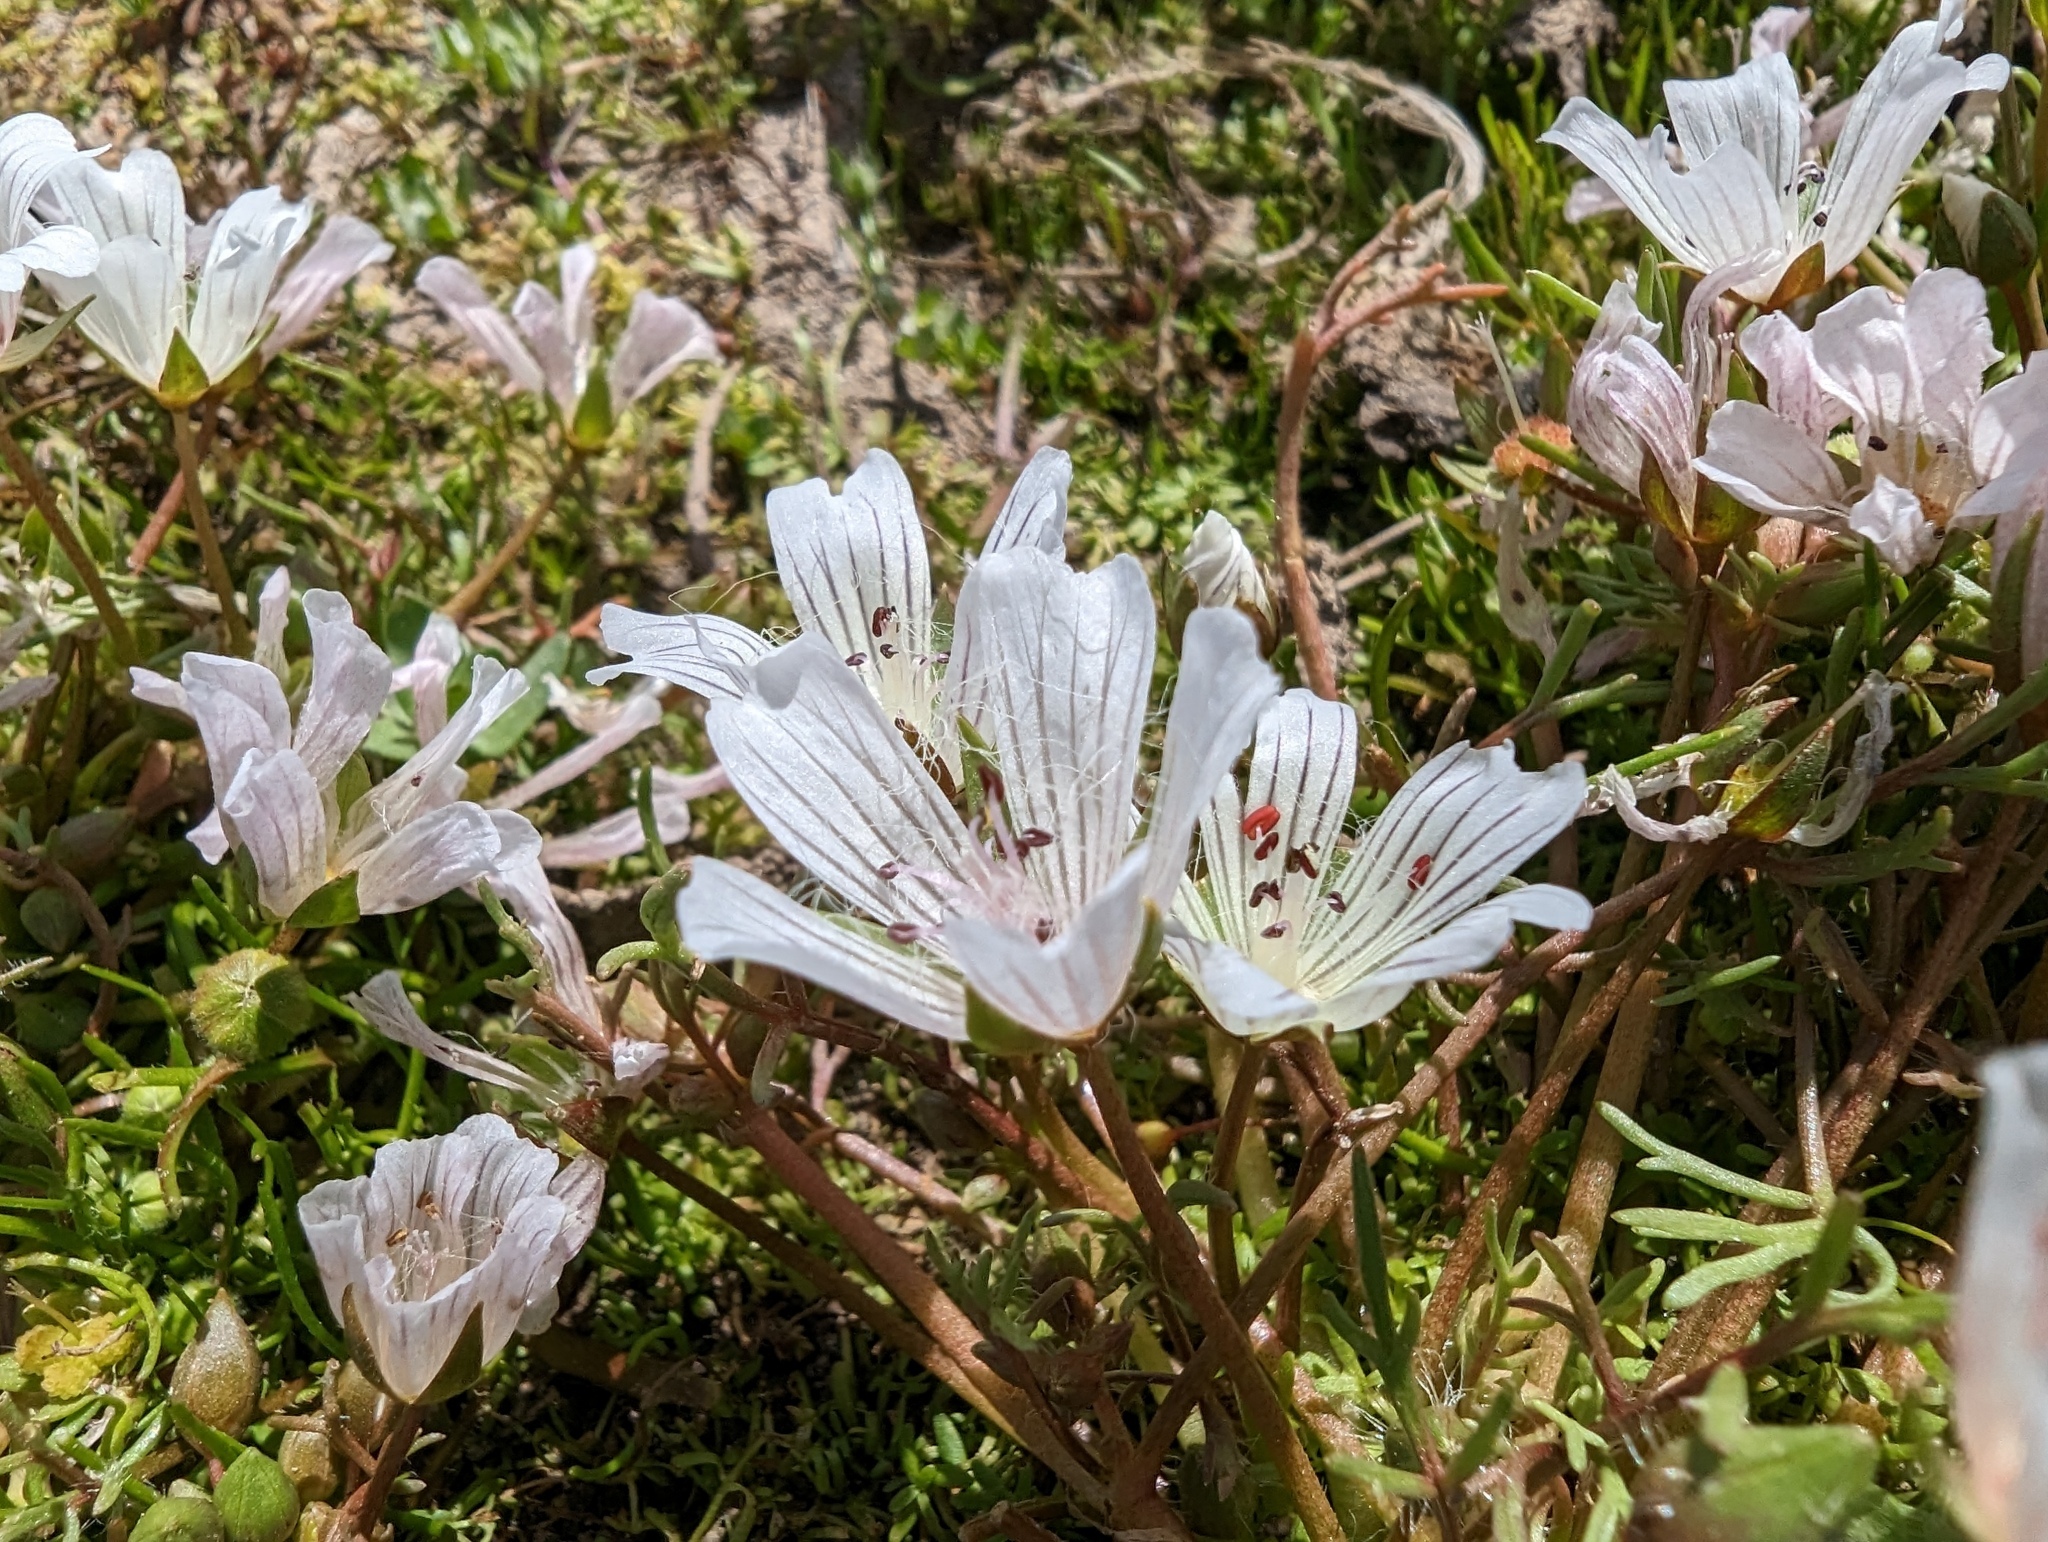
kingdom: Plantae
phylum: Tracheophyta
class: Magnoliopsida
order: Brassicales
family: Limnanthaceae
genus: Limnanthes
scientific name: Limnanthes douglasii
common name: Meadow-foam
